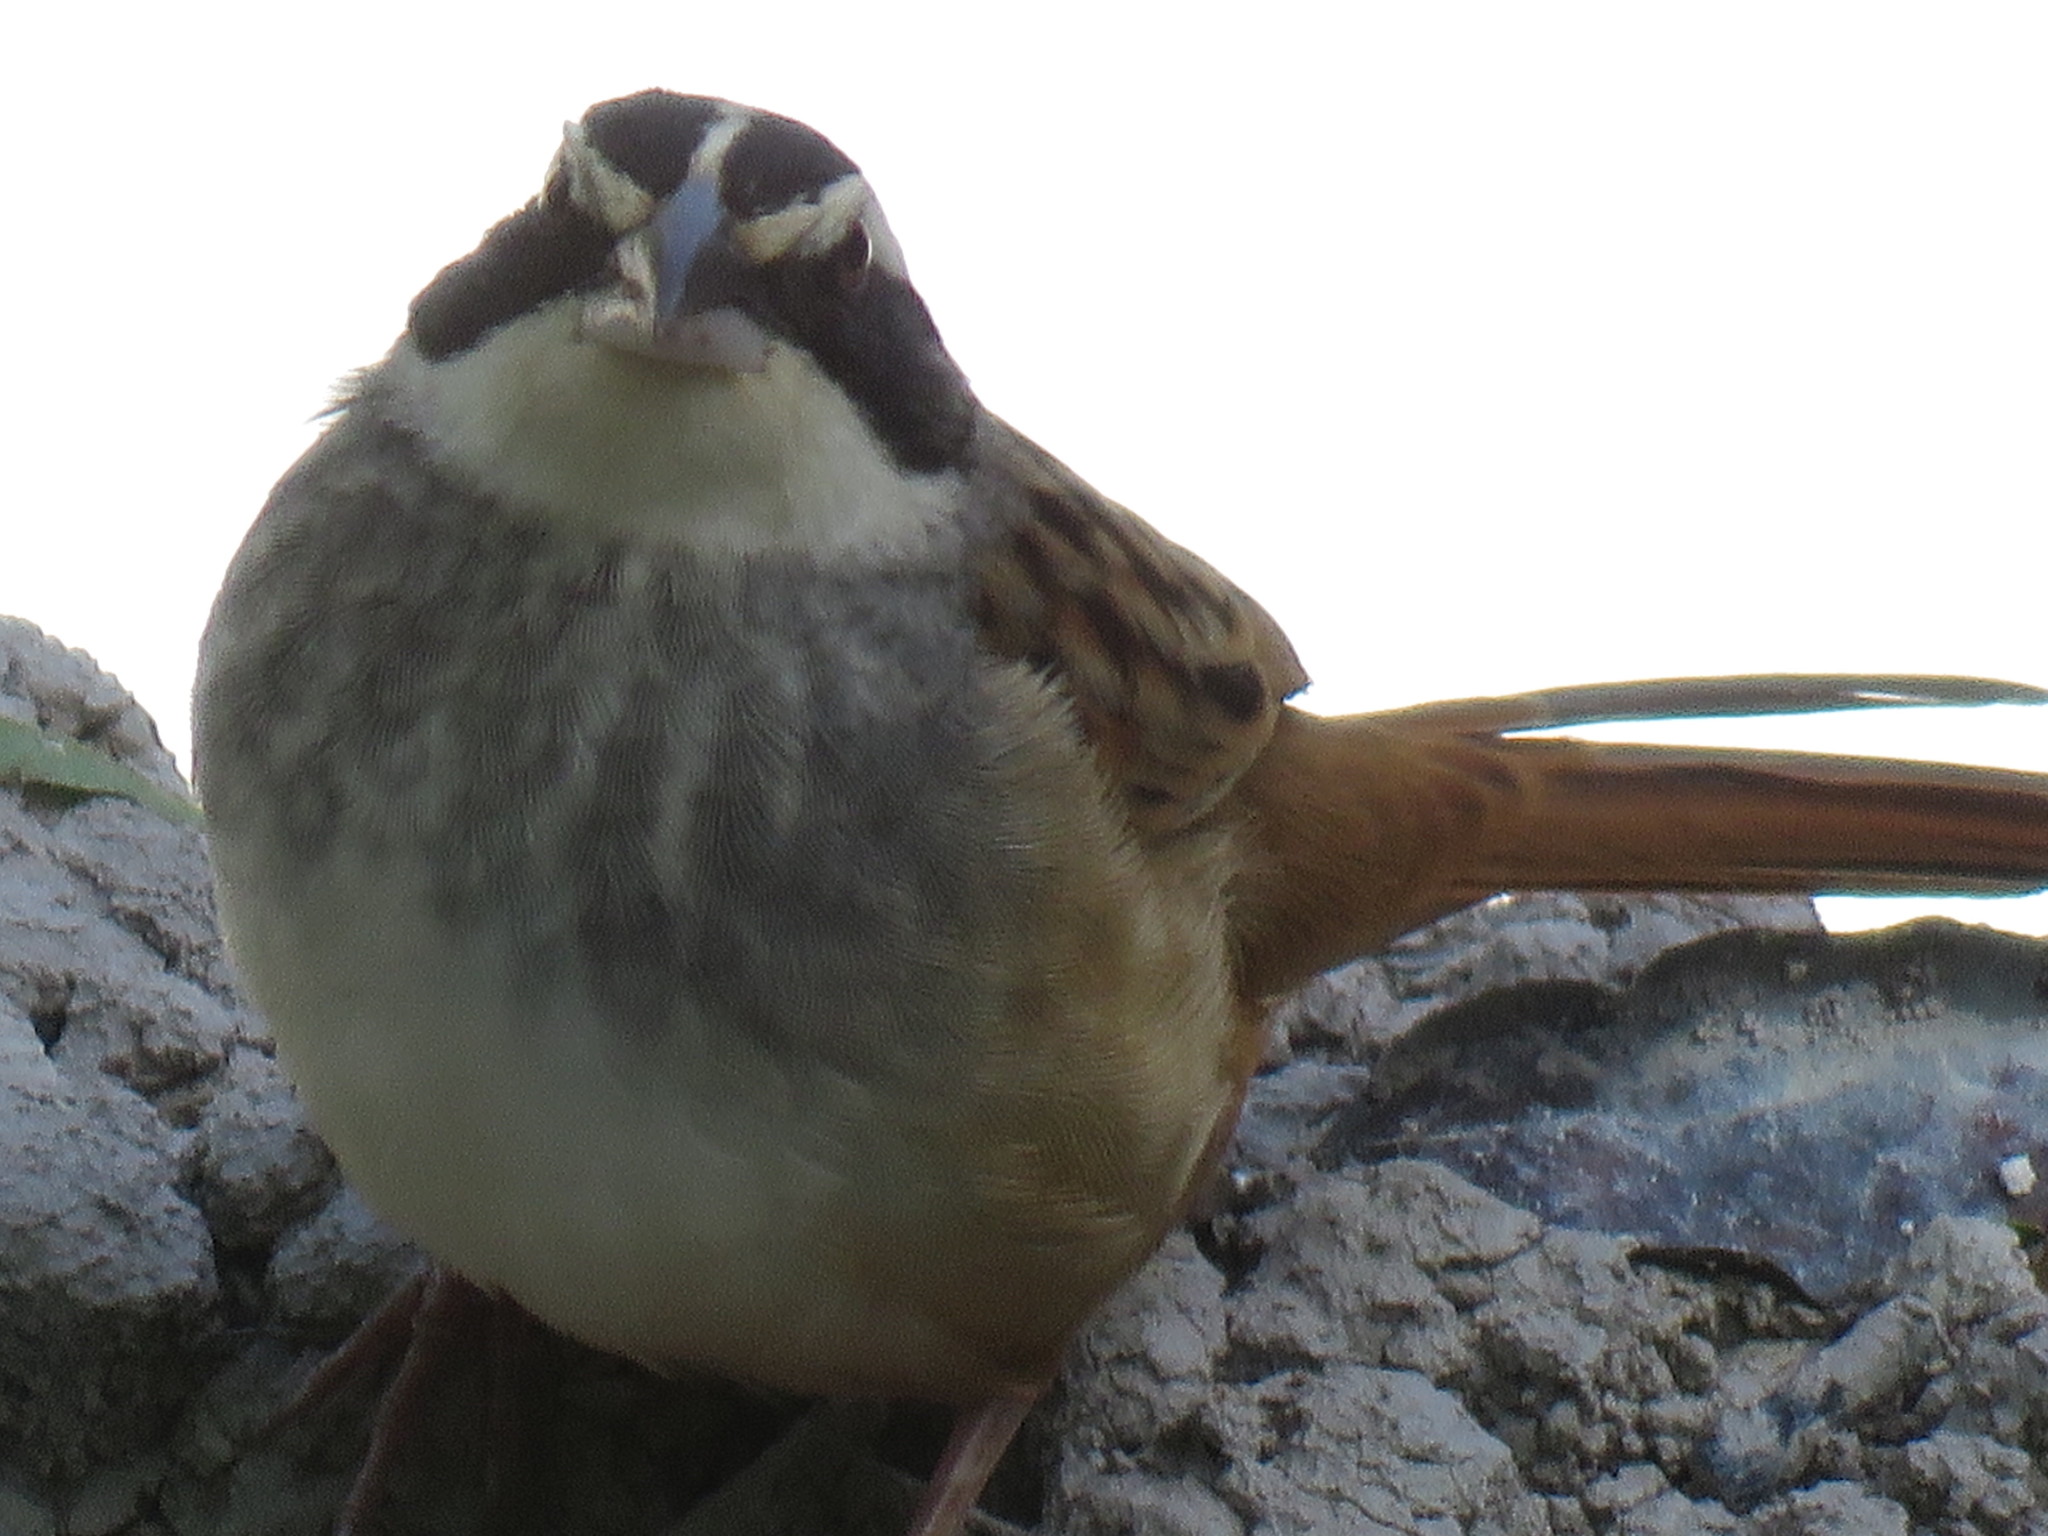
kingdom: Animalia
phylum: Chordata
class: Aves
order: Passeriformes
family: Passerellidae
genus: Peucaea
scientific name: Peucaea ruficauda
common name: Stripe-headed sparrow
